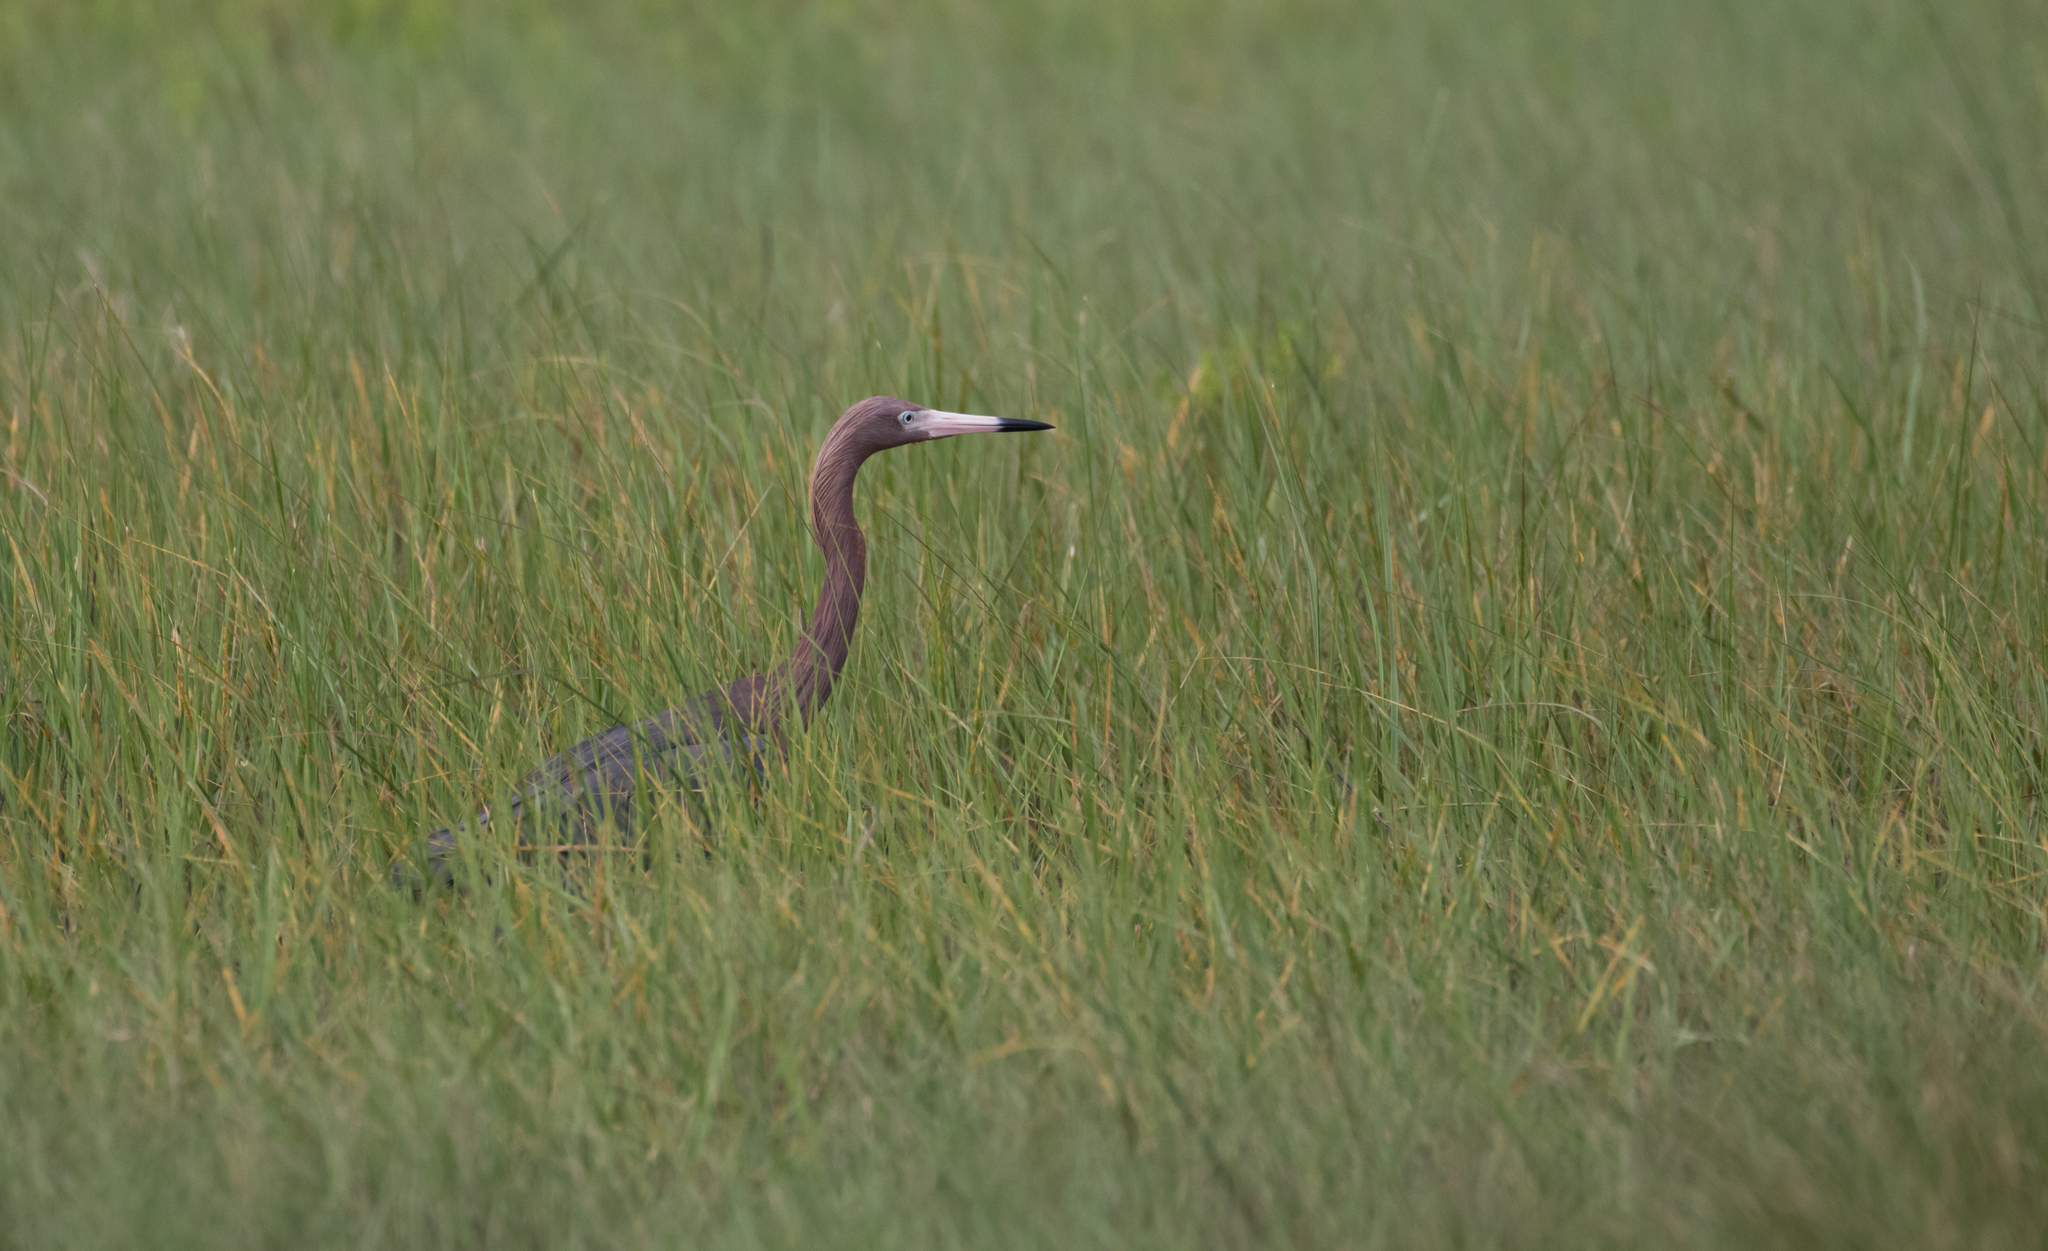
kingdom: Animalia
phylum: Chordata
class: Aves
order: Pelecaniformes
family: Ardeidae
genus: Egretta
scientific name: Egretta rufescens
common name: Reddish egret
